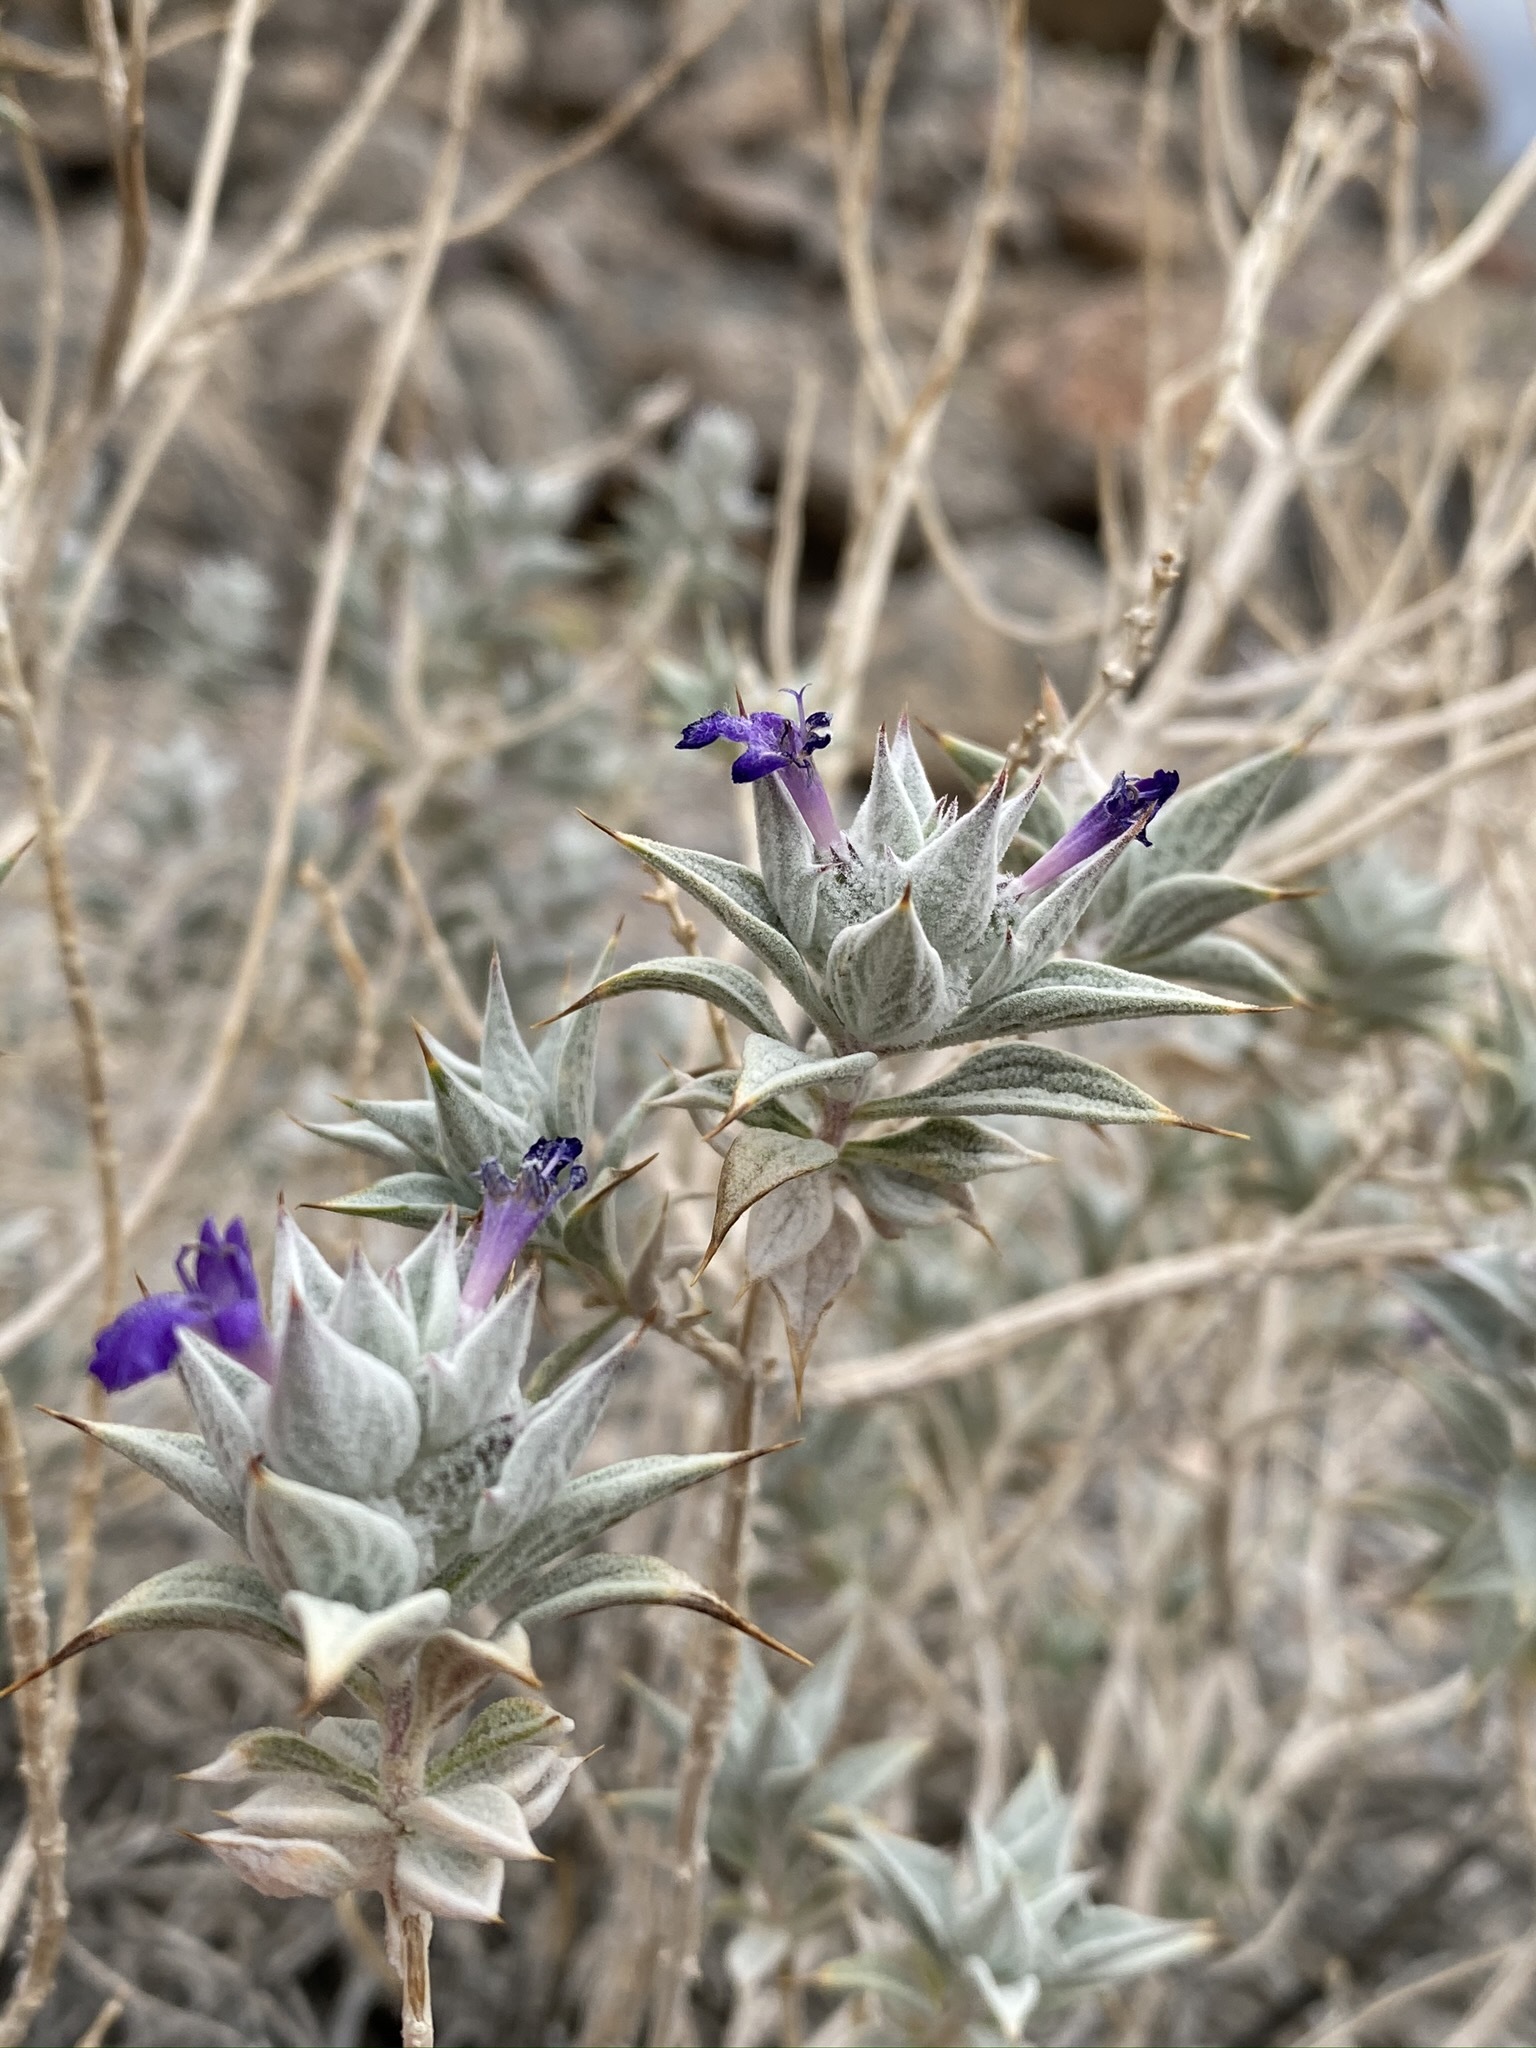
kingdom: Plantae
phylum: Tracheophyta
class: Magnoliopsida
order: Lamiales
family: Lamiaceae
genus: Salvia
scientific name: Salvia funerea
